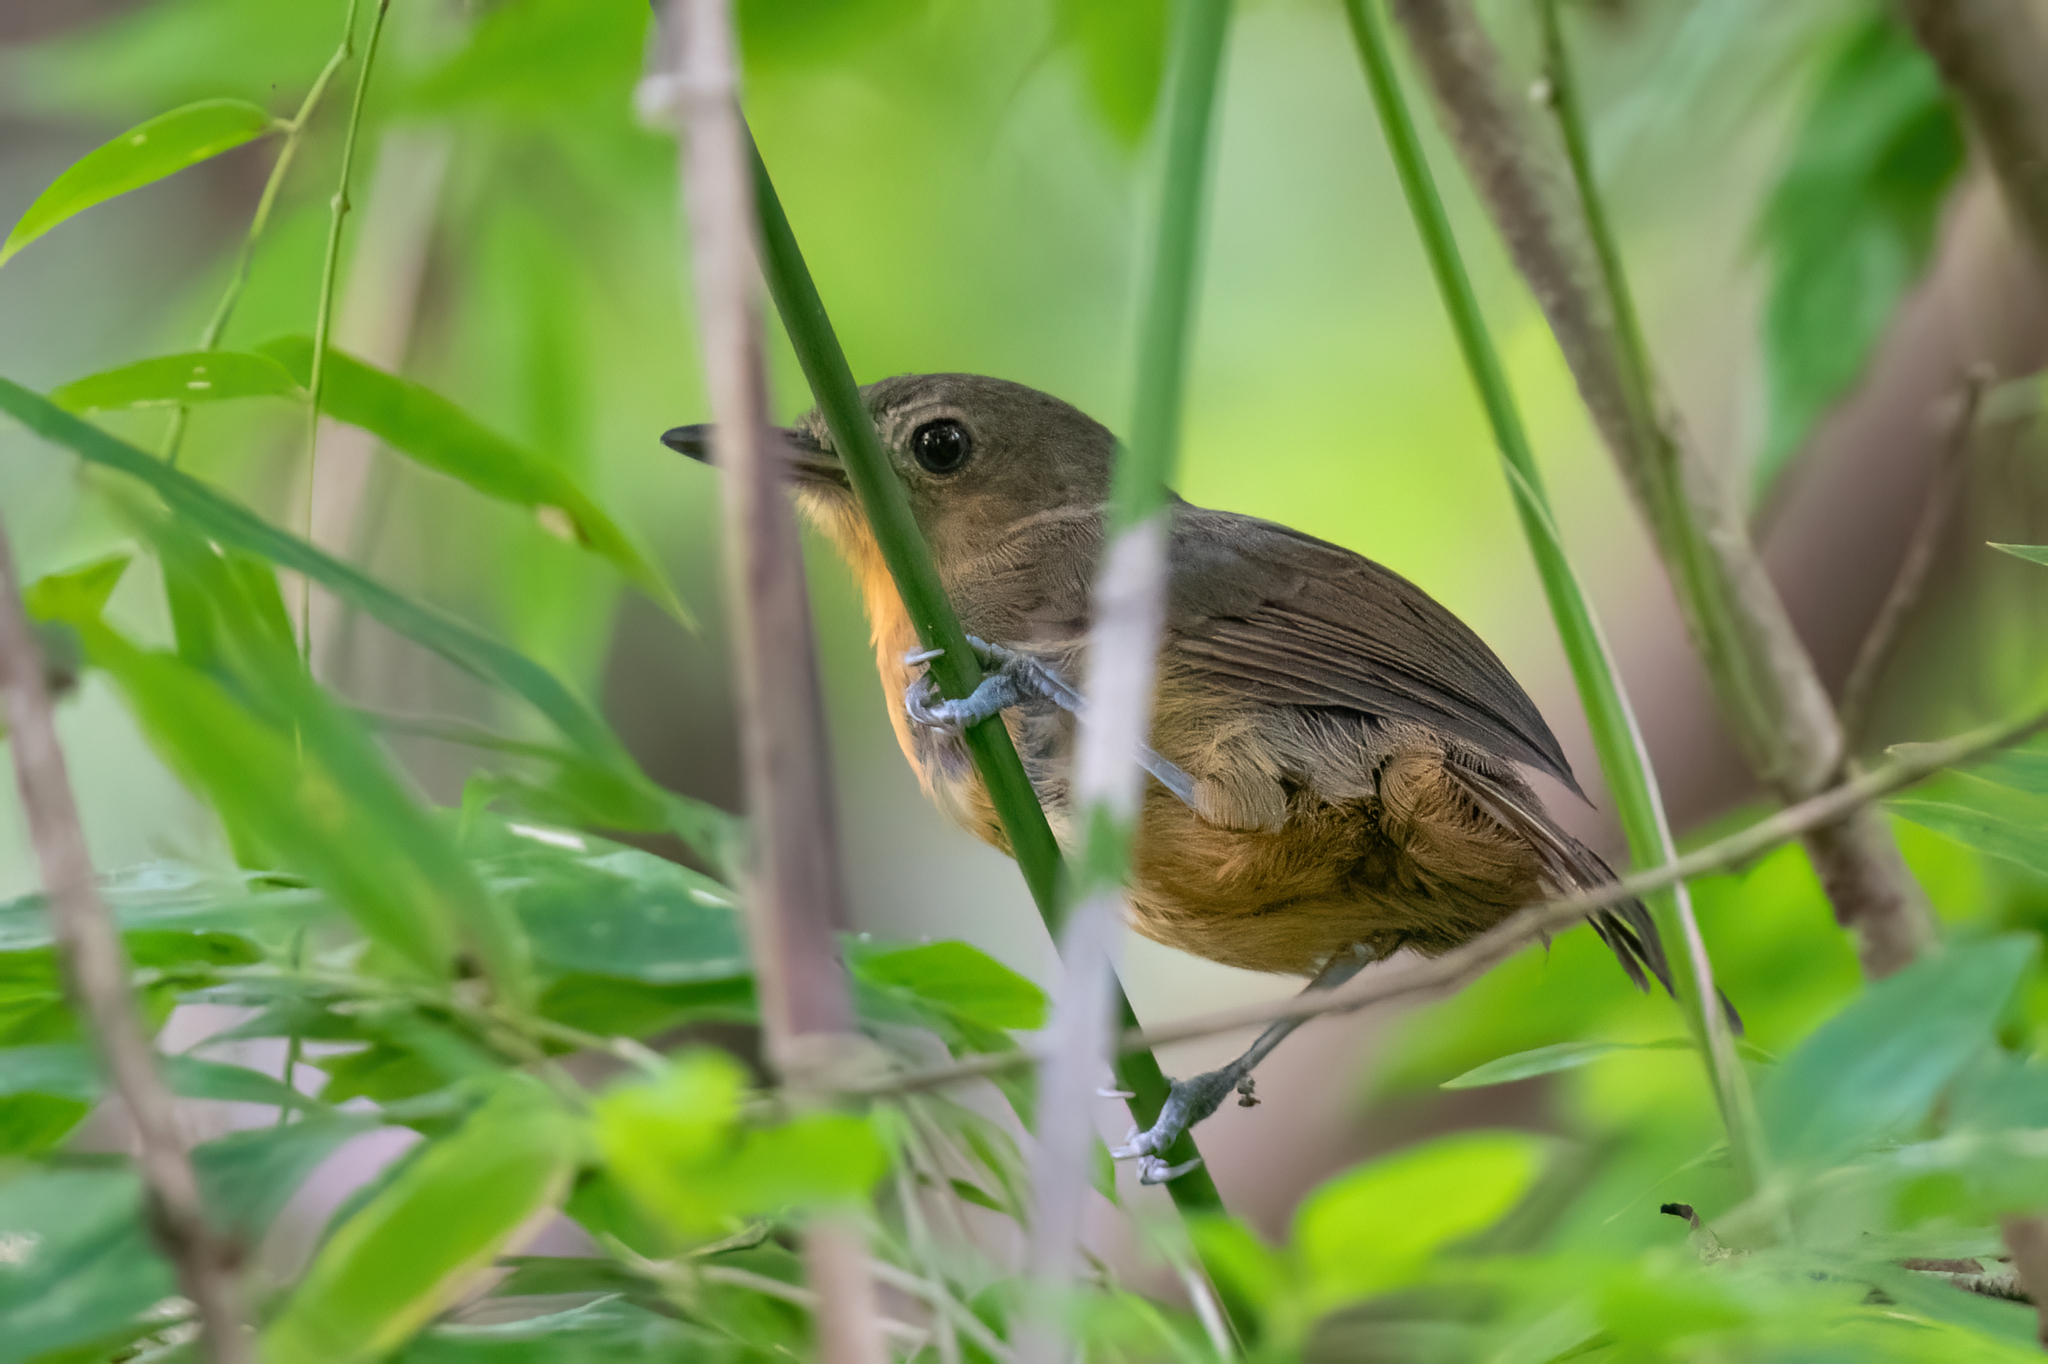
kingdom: Animalia
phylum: Chordata
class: Aves
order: Passeriformes
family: Thamnophilidae
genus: Cercomacra
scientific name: Cercomacra tyrannina
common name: Dusky antbird
